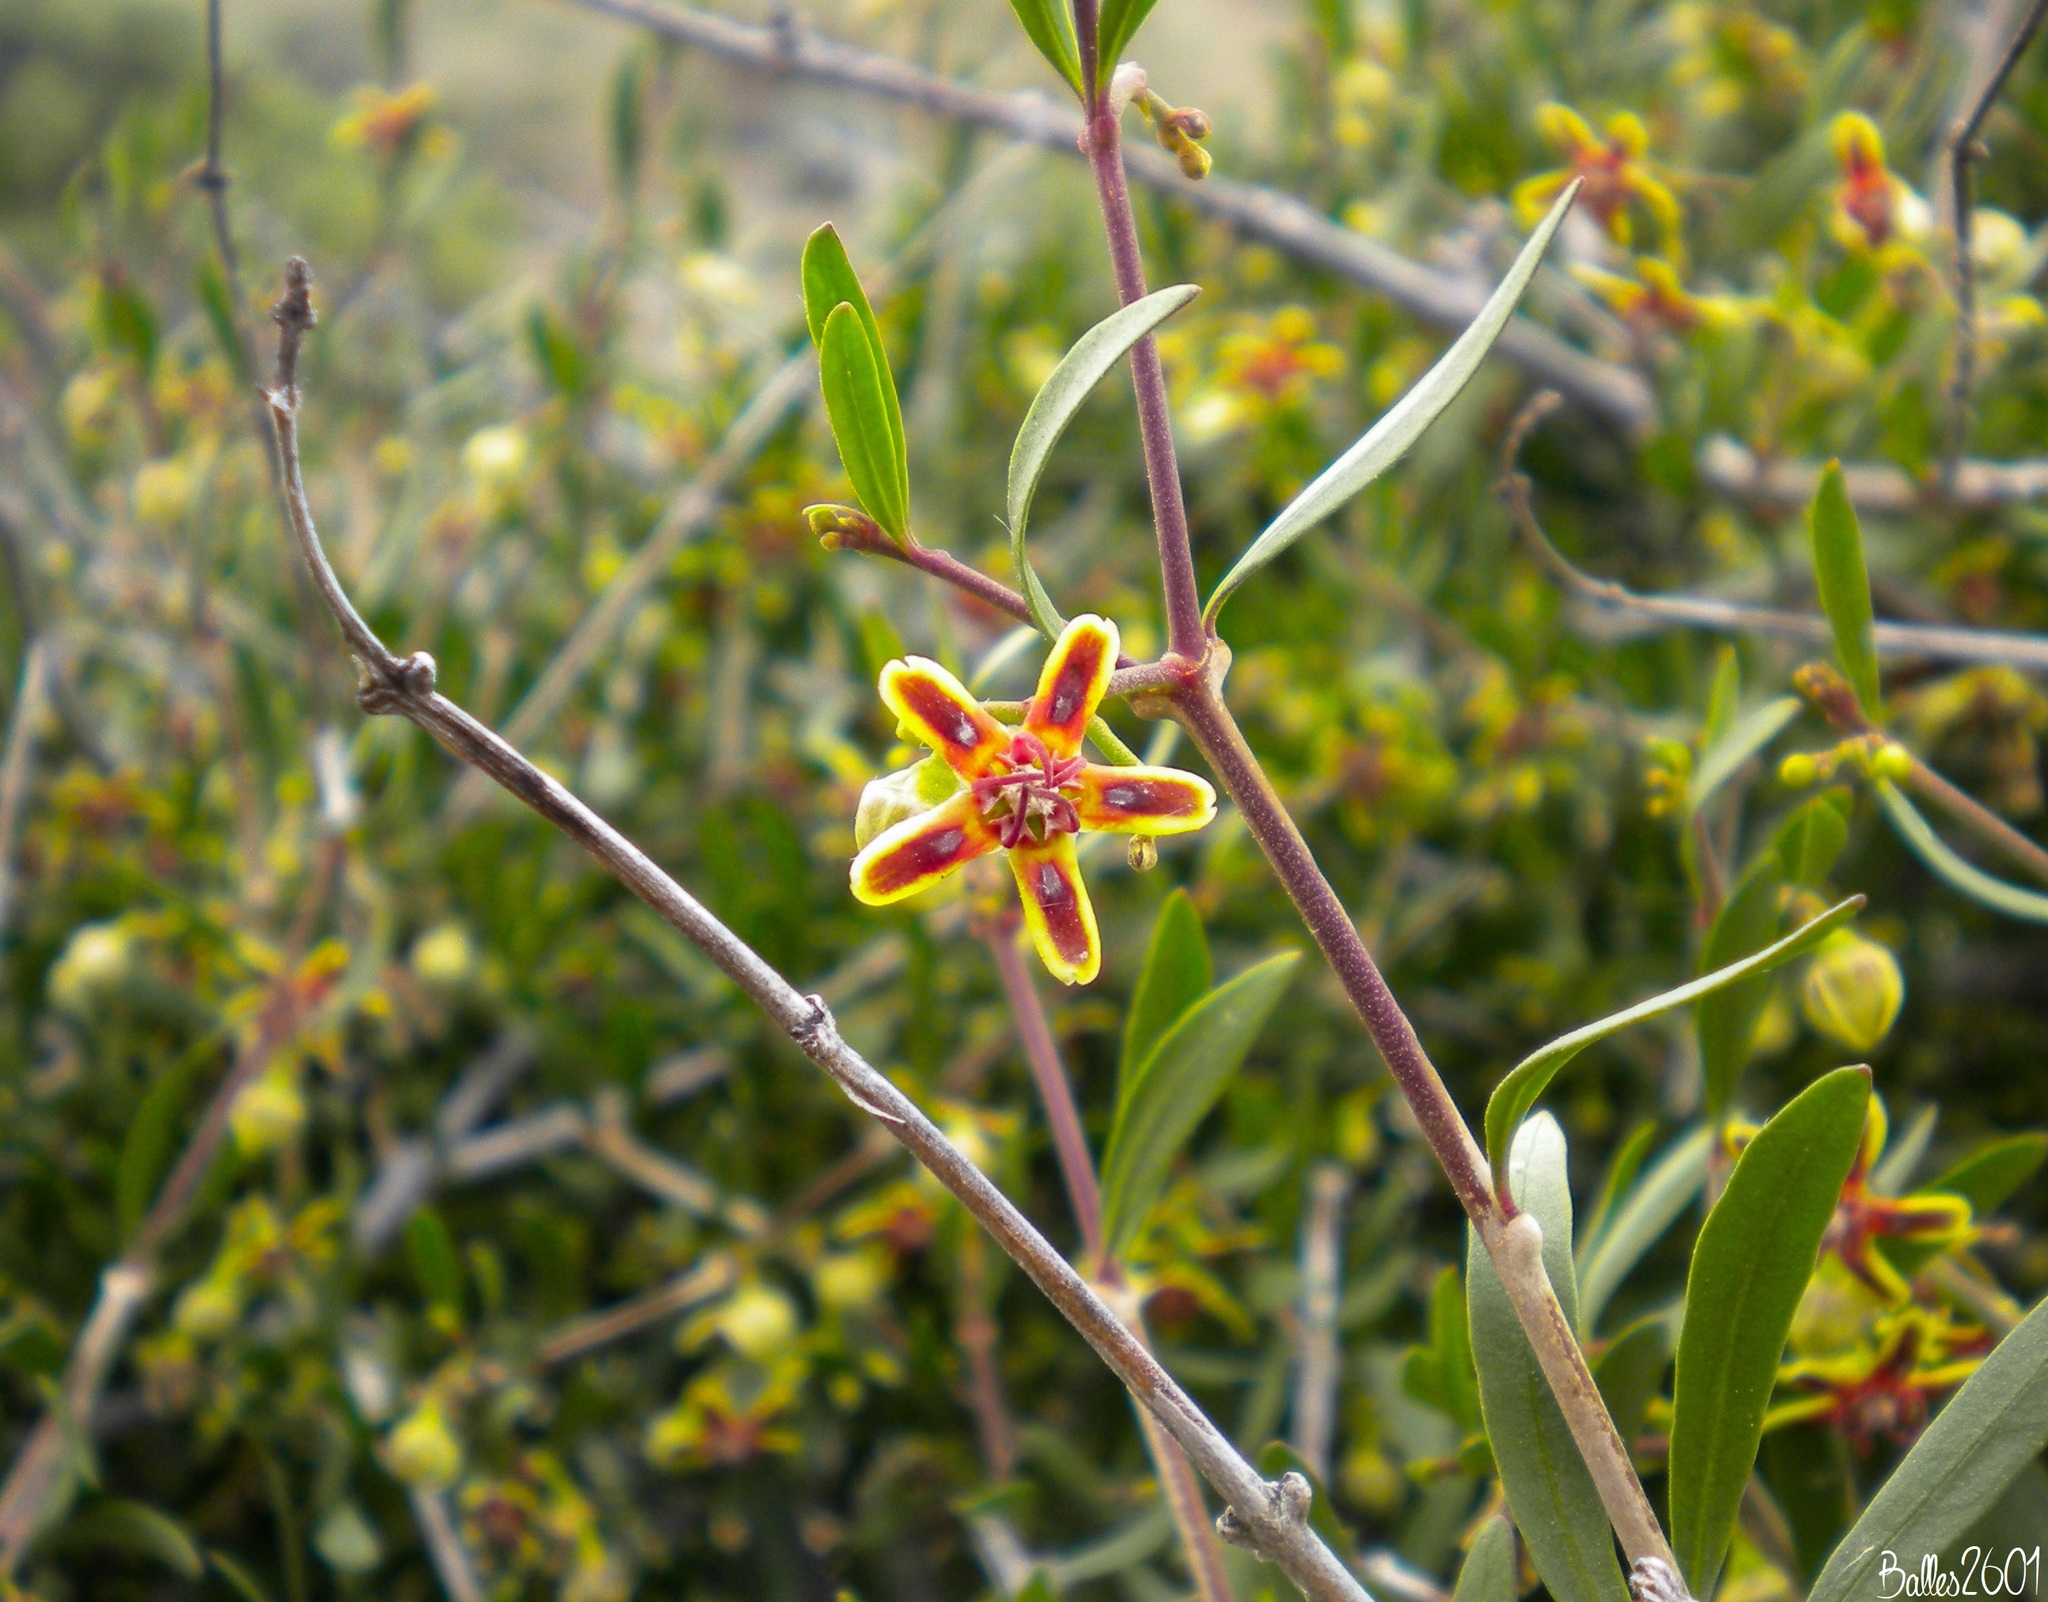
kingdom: Plantae
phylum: Tracheophyta
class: Magnoliopsida
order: Gentianales
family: Apocynaceae
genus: Periploca
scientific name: Periploca laevigata
